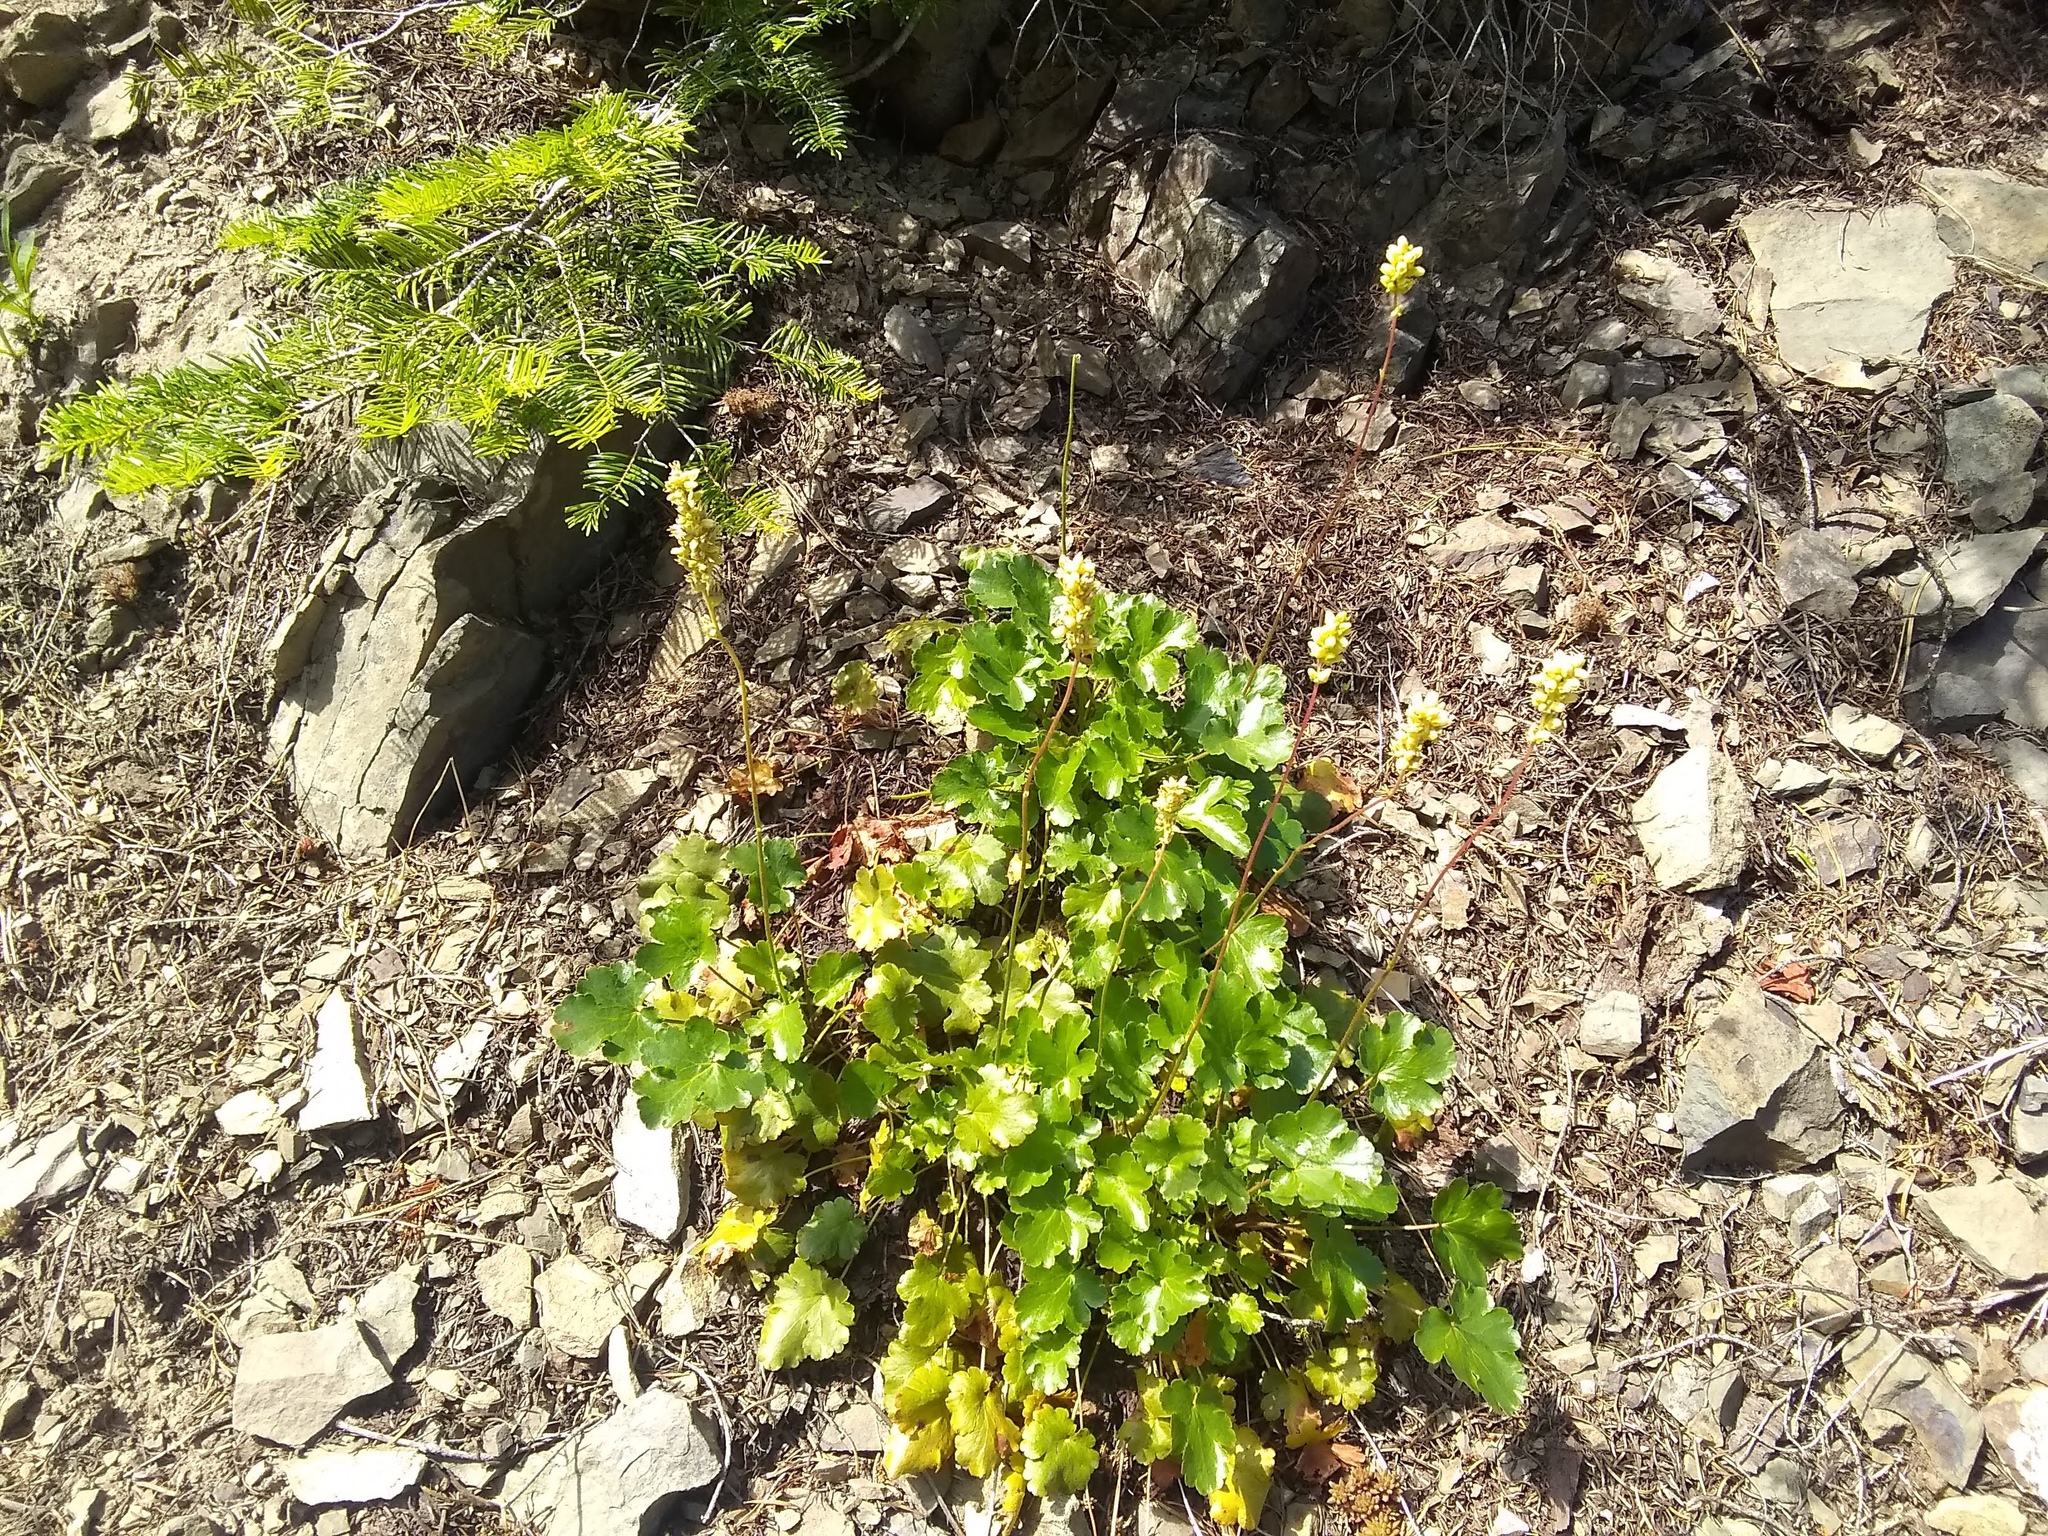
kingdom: Plantae
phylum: Tracheophyta
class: Magnoliopsida
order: Saxifragales
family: Saxifragaceae
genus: Heuchera
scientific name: Heuchera cylindrica
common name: Mat alumroot
